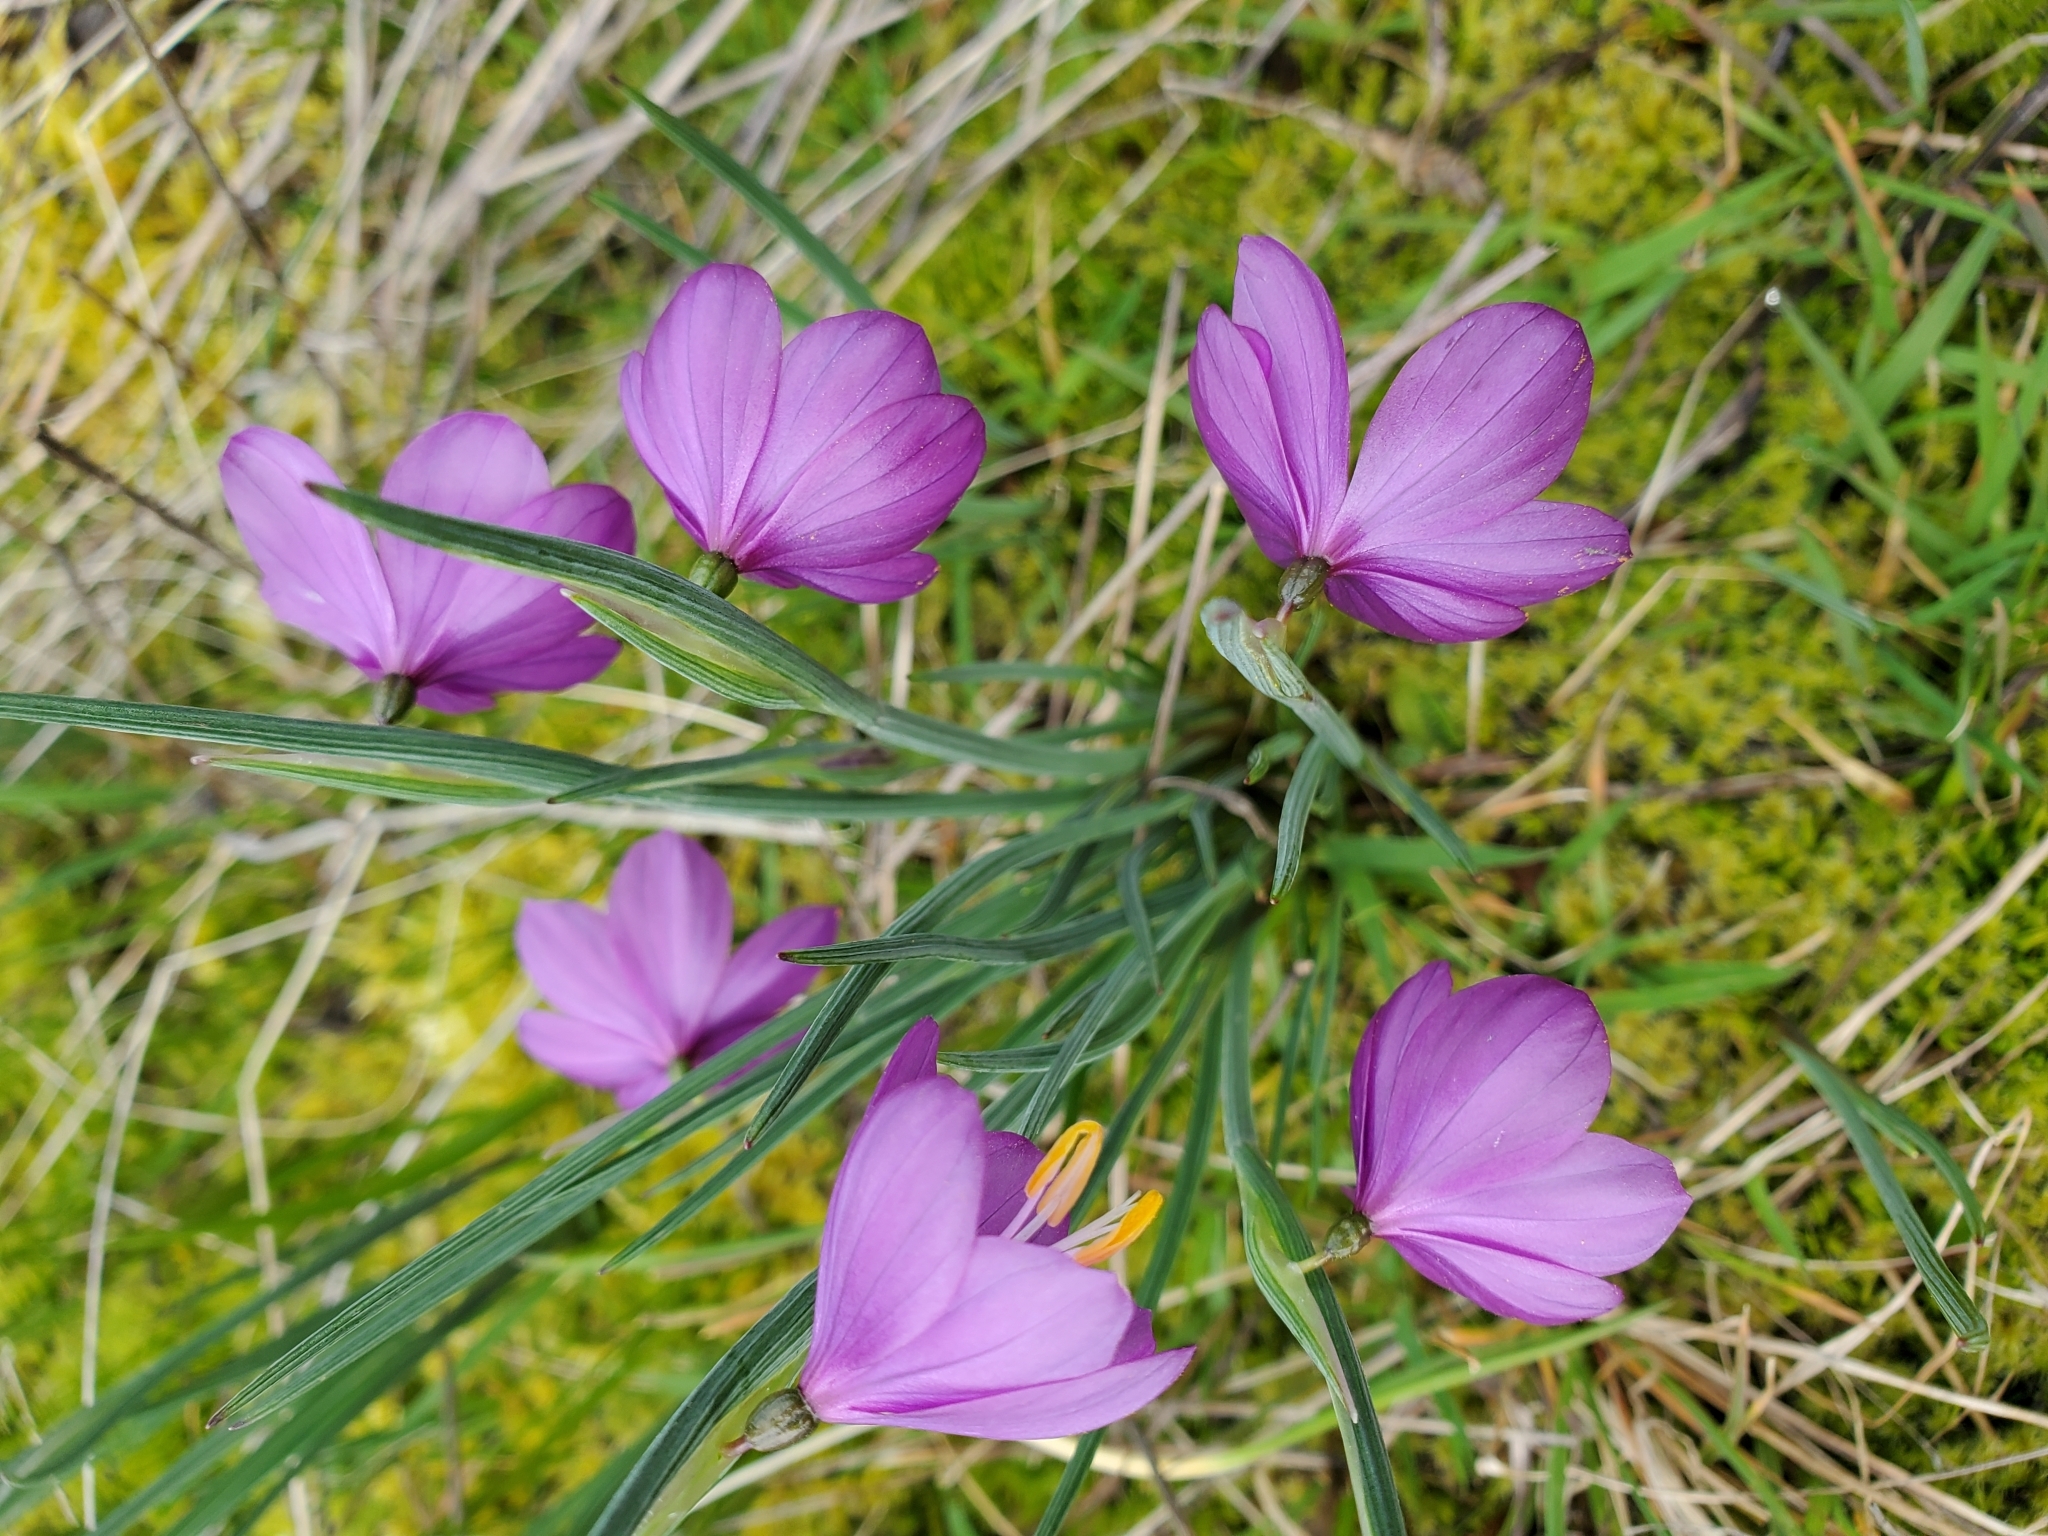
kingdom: Plantae
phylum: Tracheophyta
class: Liliopsida
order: Asparagales
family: Iridaceae
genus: Olsynium
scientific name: Olsynium douglasii
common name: Douglas' grasswidow
